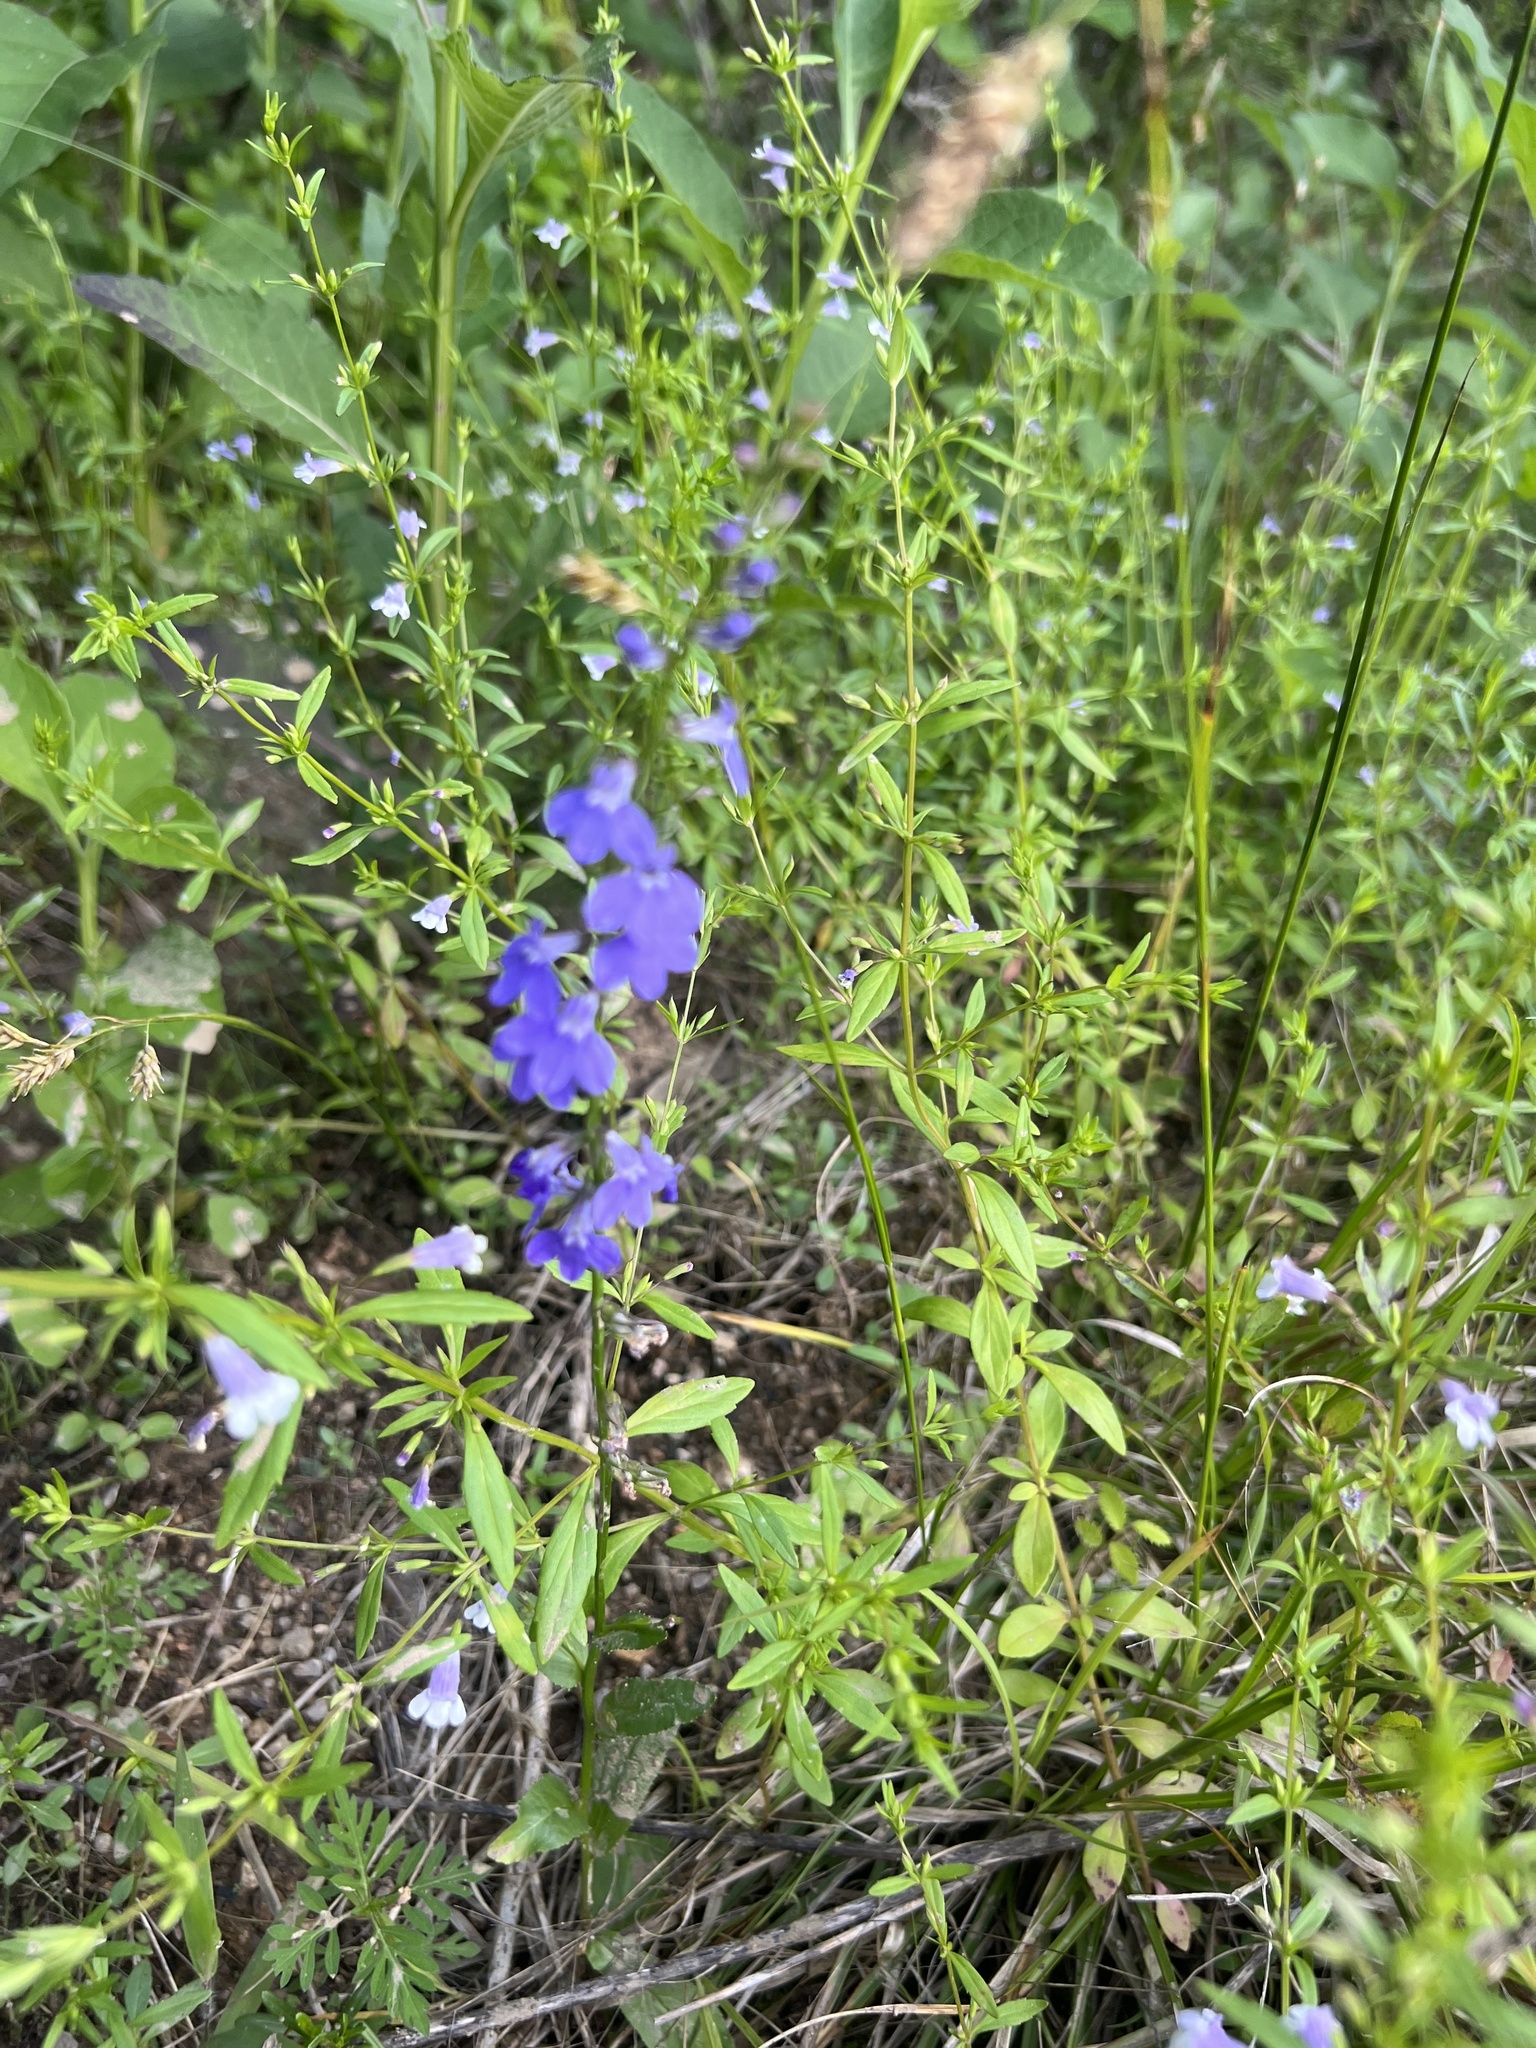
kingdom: Plantae
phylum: Tracheophyta
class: Magnoliopsida
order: Asterales
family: Campanulaceae
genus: Lobelia
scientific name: Lobelia gattingeri
